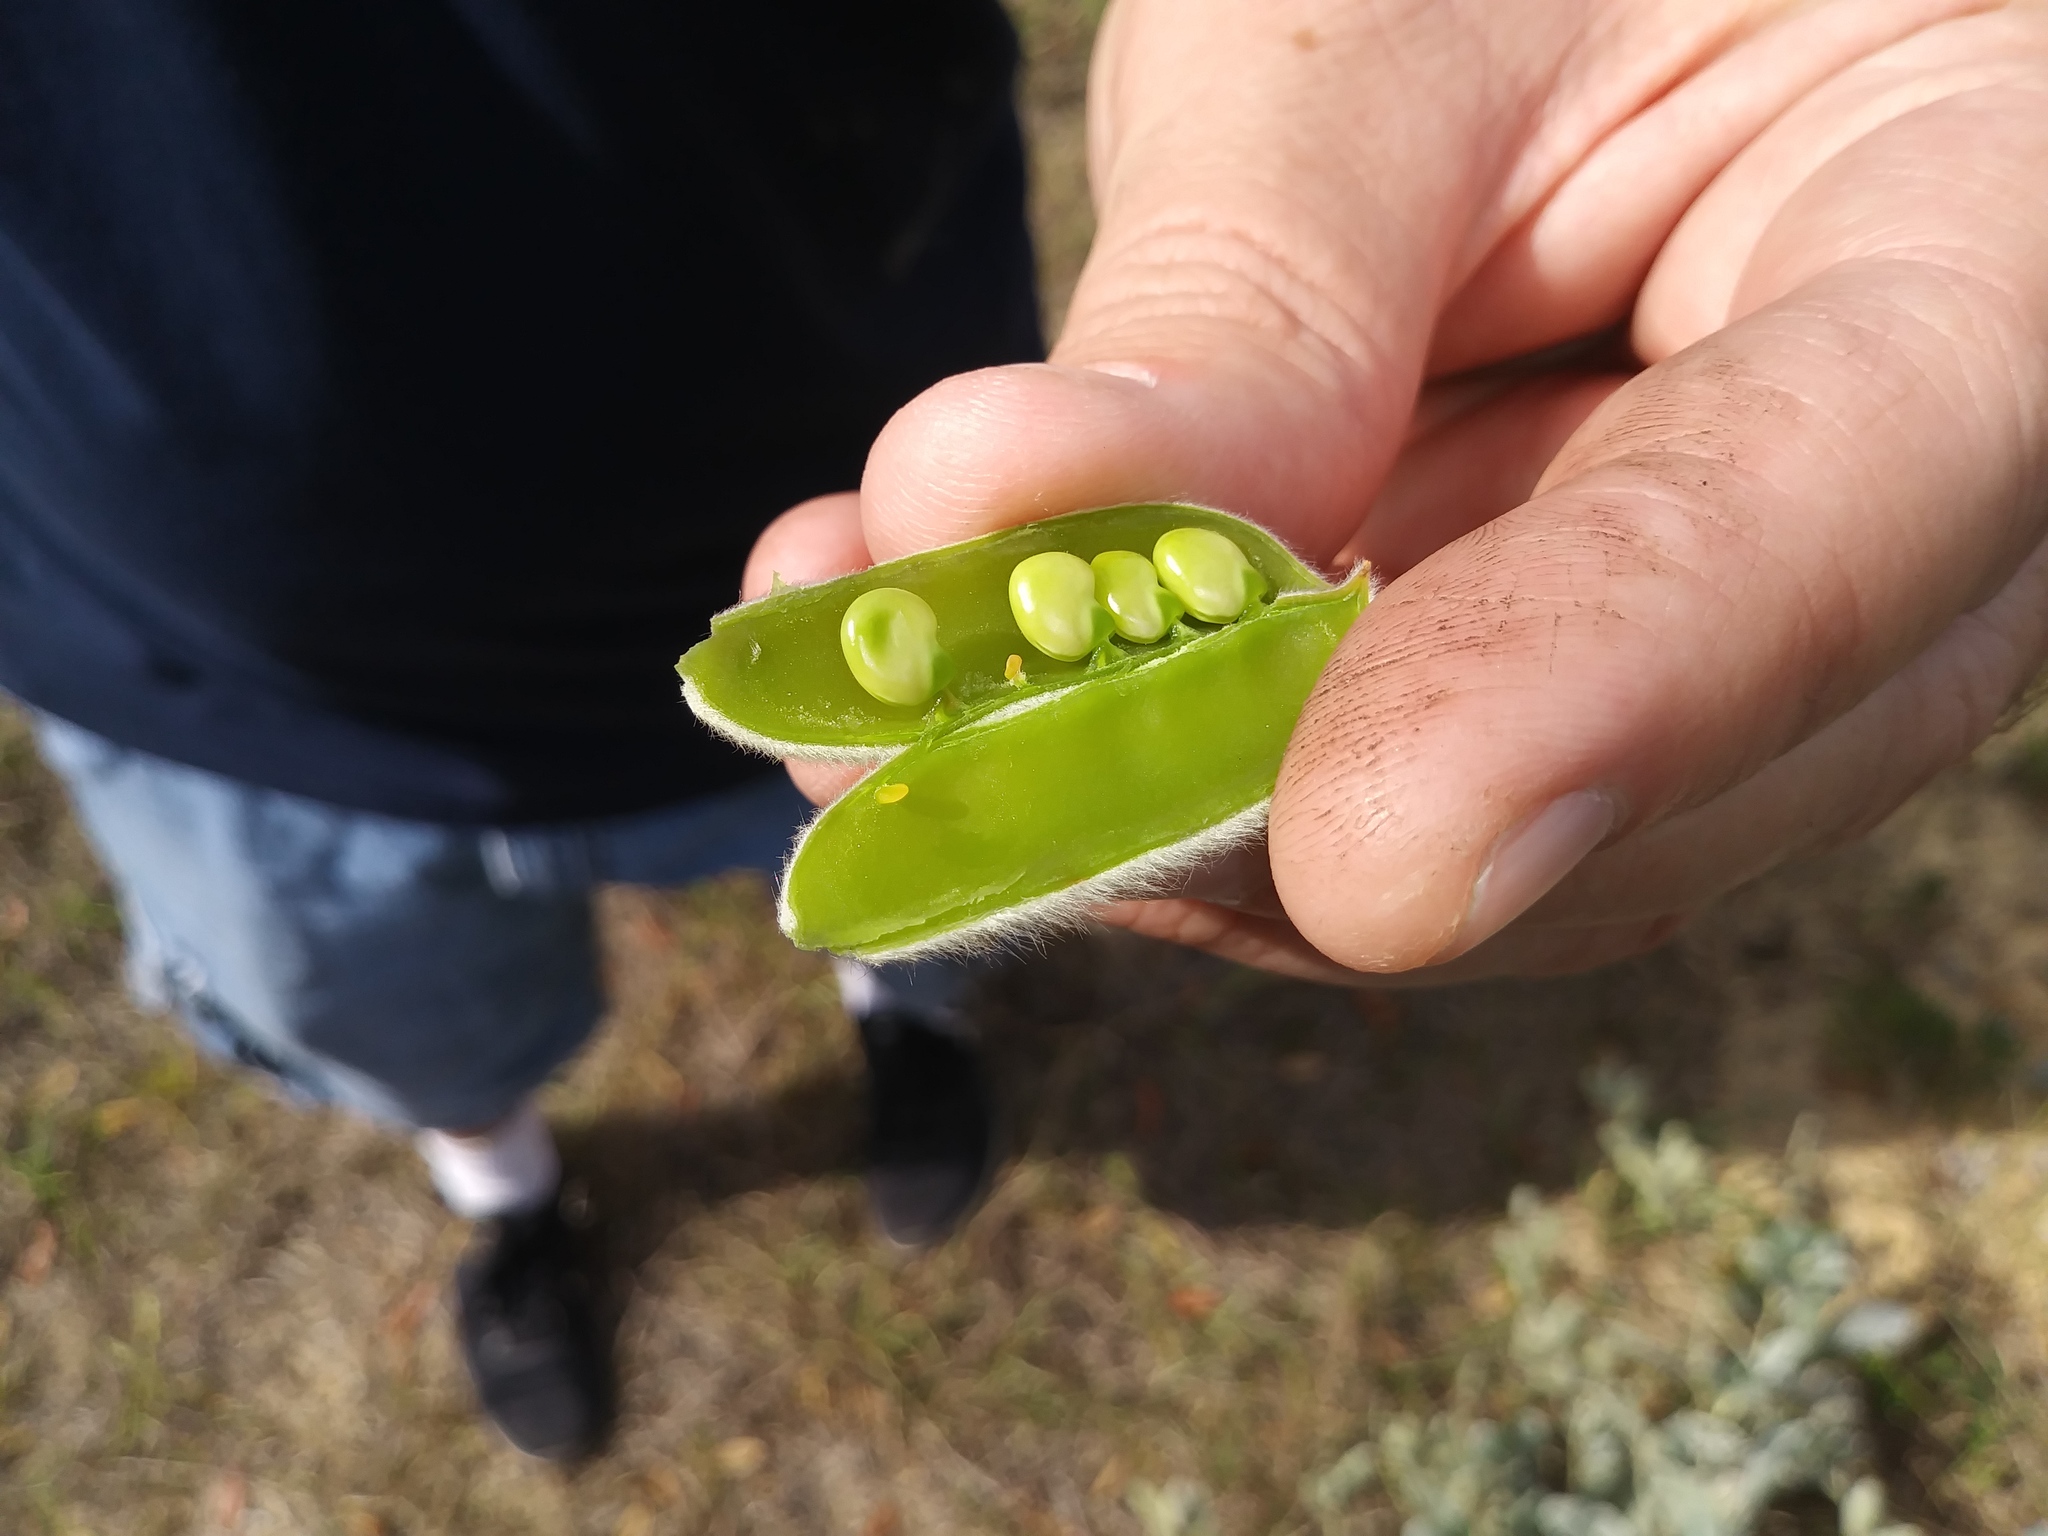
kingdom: Plantae
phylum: Tracheophyta
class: Magnoliopsida
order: Fabales
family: Fabaceae
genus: Lupinus
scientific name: Lupinus cumulicola
